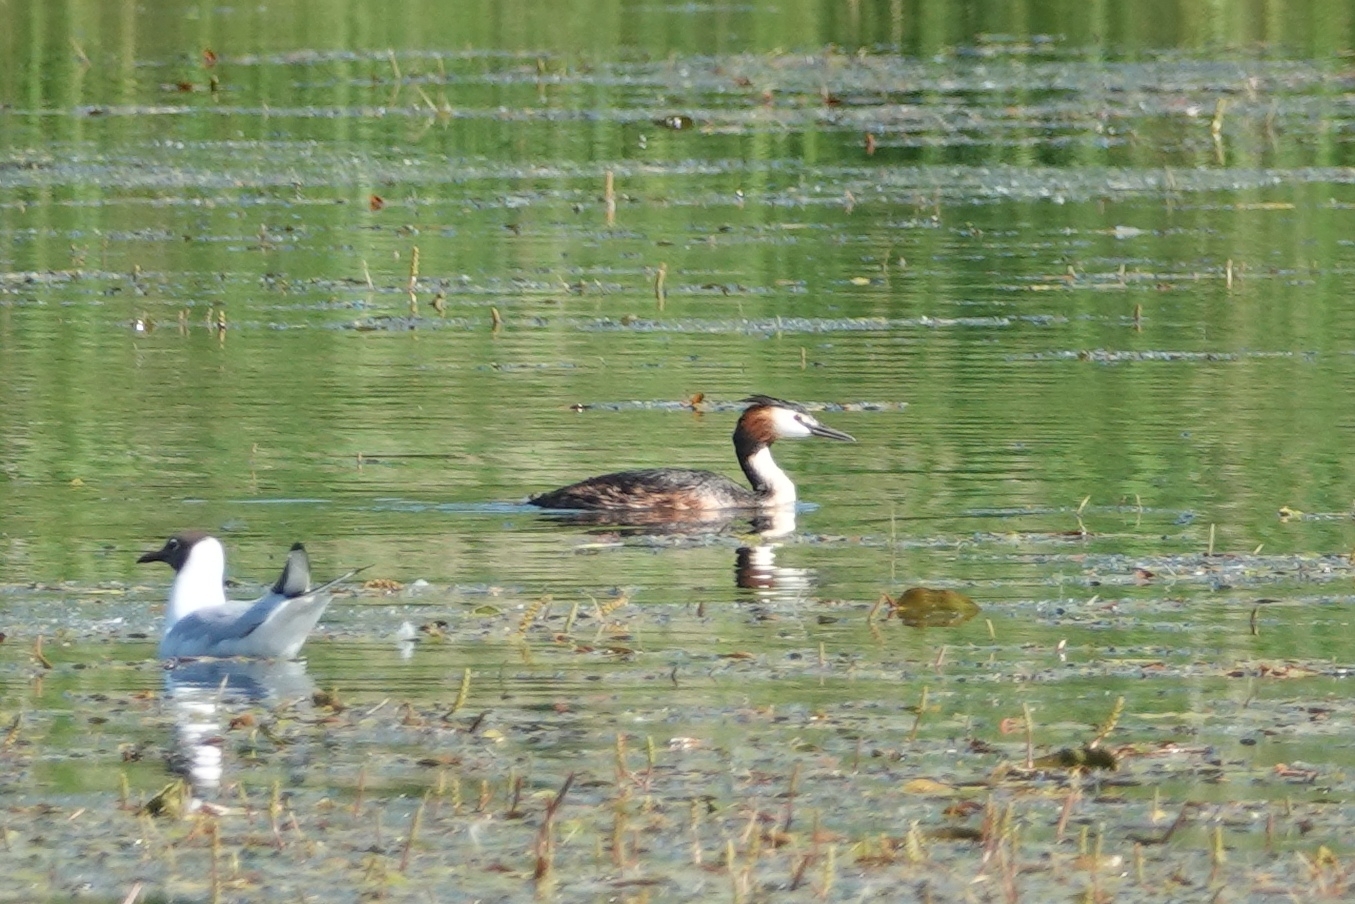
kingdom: Animalia
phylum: Chordata
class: Aves
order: Podicipediformes
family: Podicipedidae
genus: Podiceps
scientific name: Podiceps cristatus
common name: Great crested grebe
